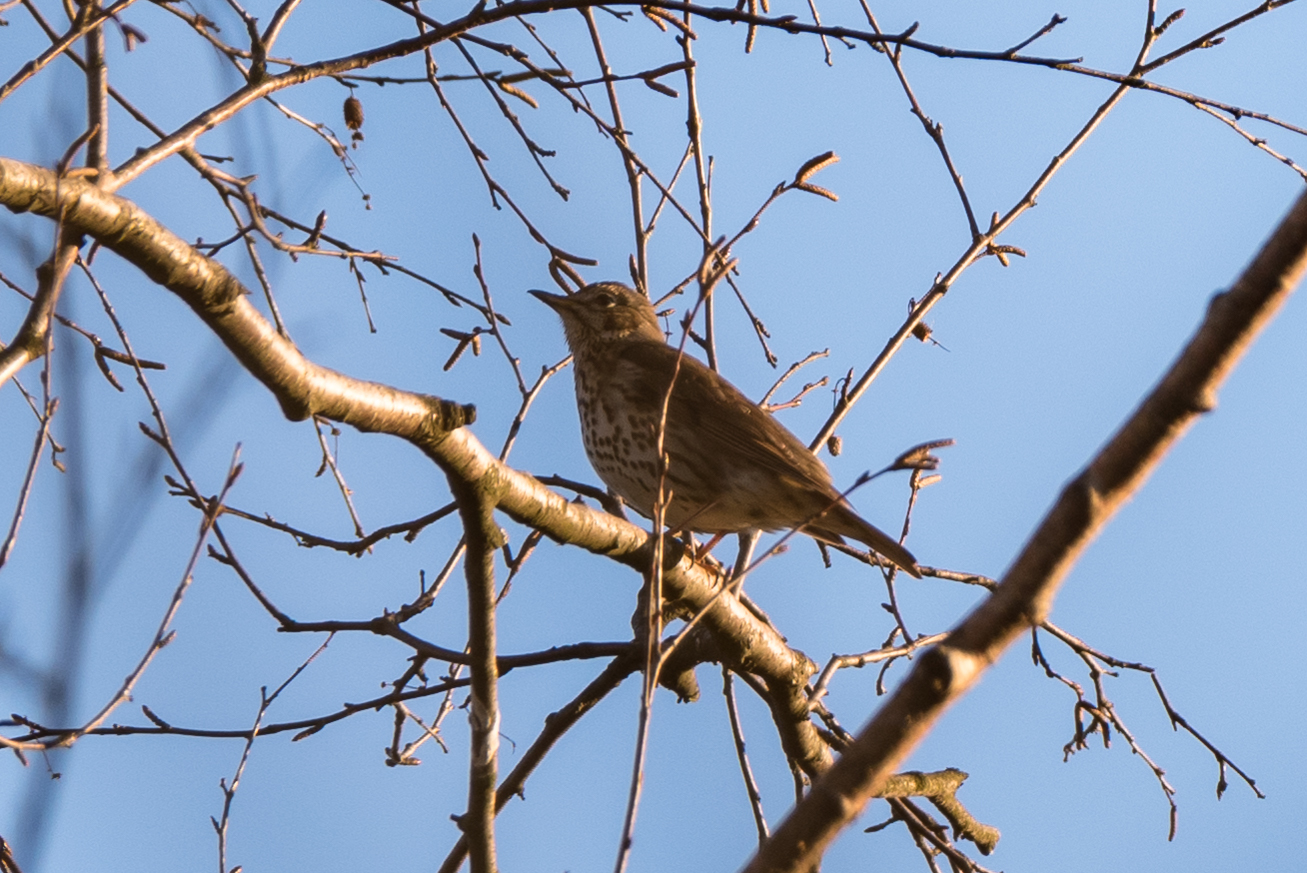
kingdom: Animalia
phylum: Chordata
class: Aves
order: Passeriformes
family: Turdidae
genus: Turdus
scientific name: Turdus philomelos
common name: Song thrush
